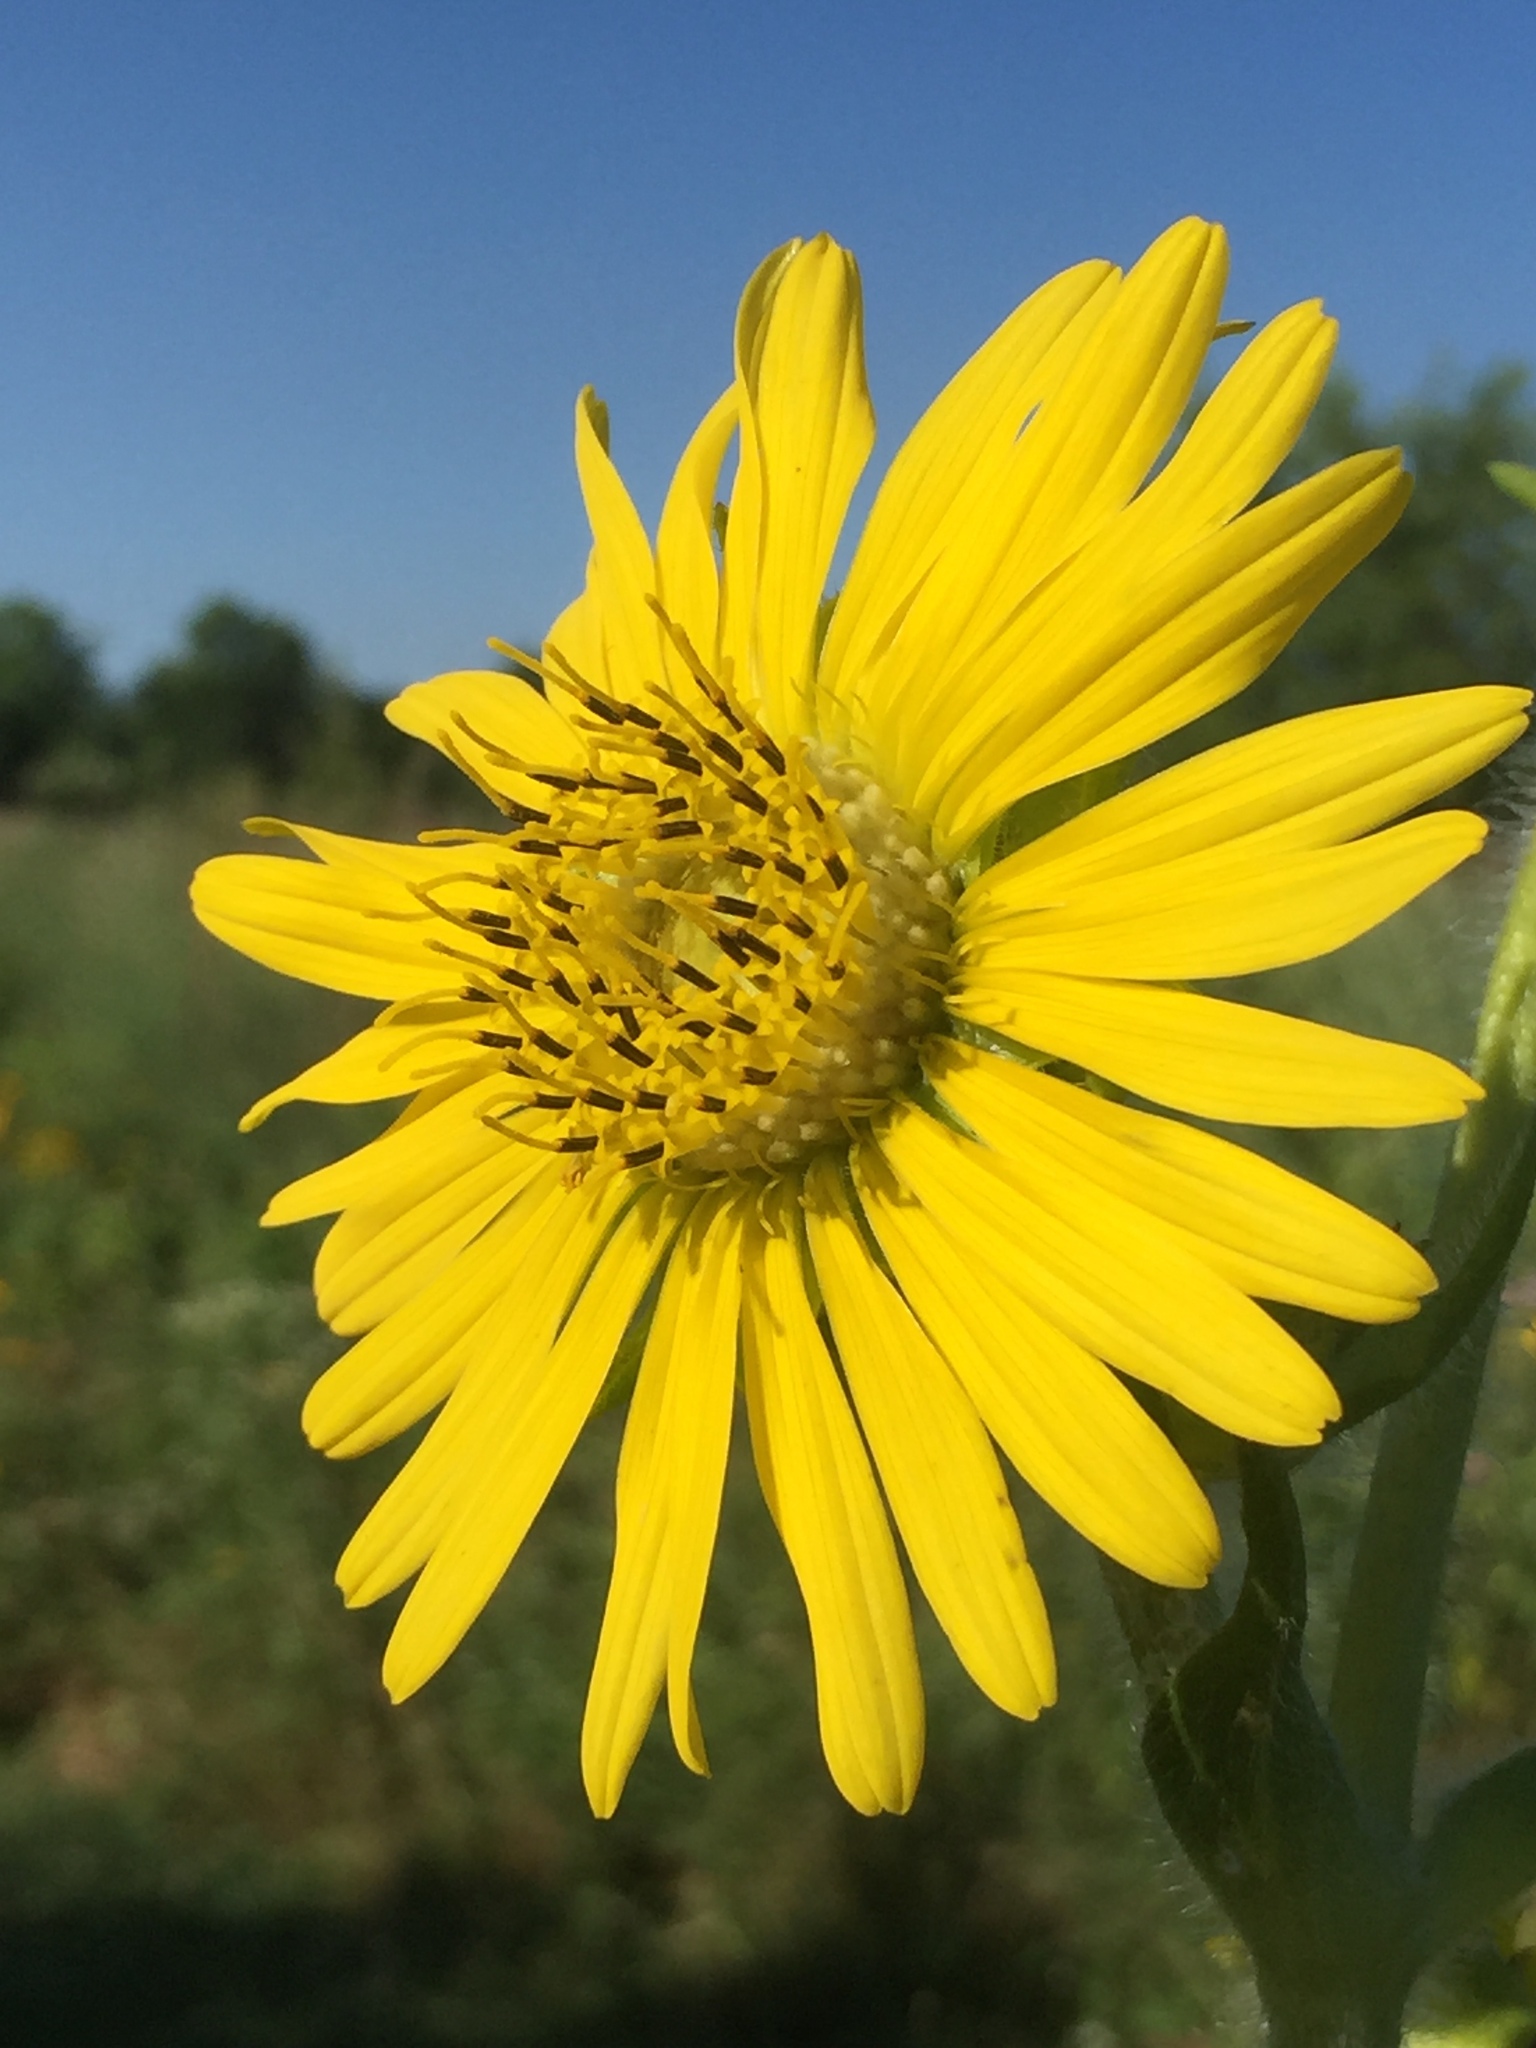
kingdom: Plantae
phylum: Tracheophyta
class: Magnoliopsida
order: Asterales
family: Asteraceae
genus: Silphium
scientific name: Silphium laciniatum
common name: Polarplant
